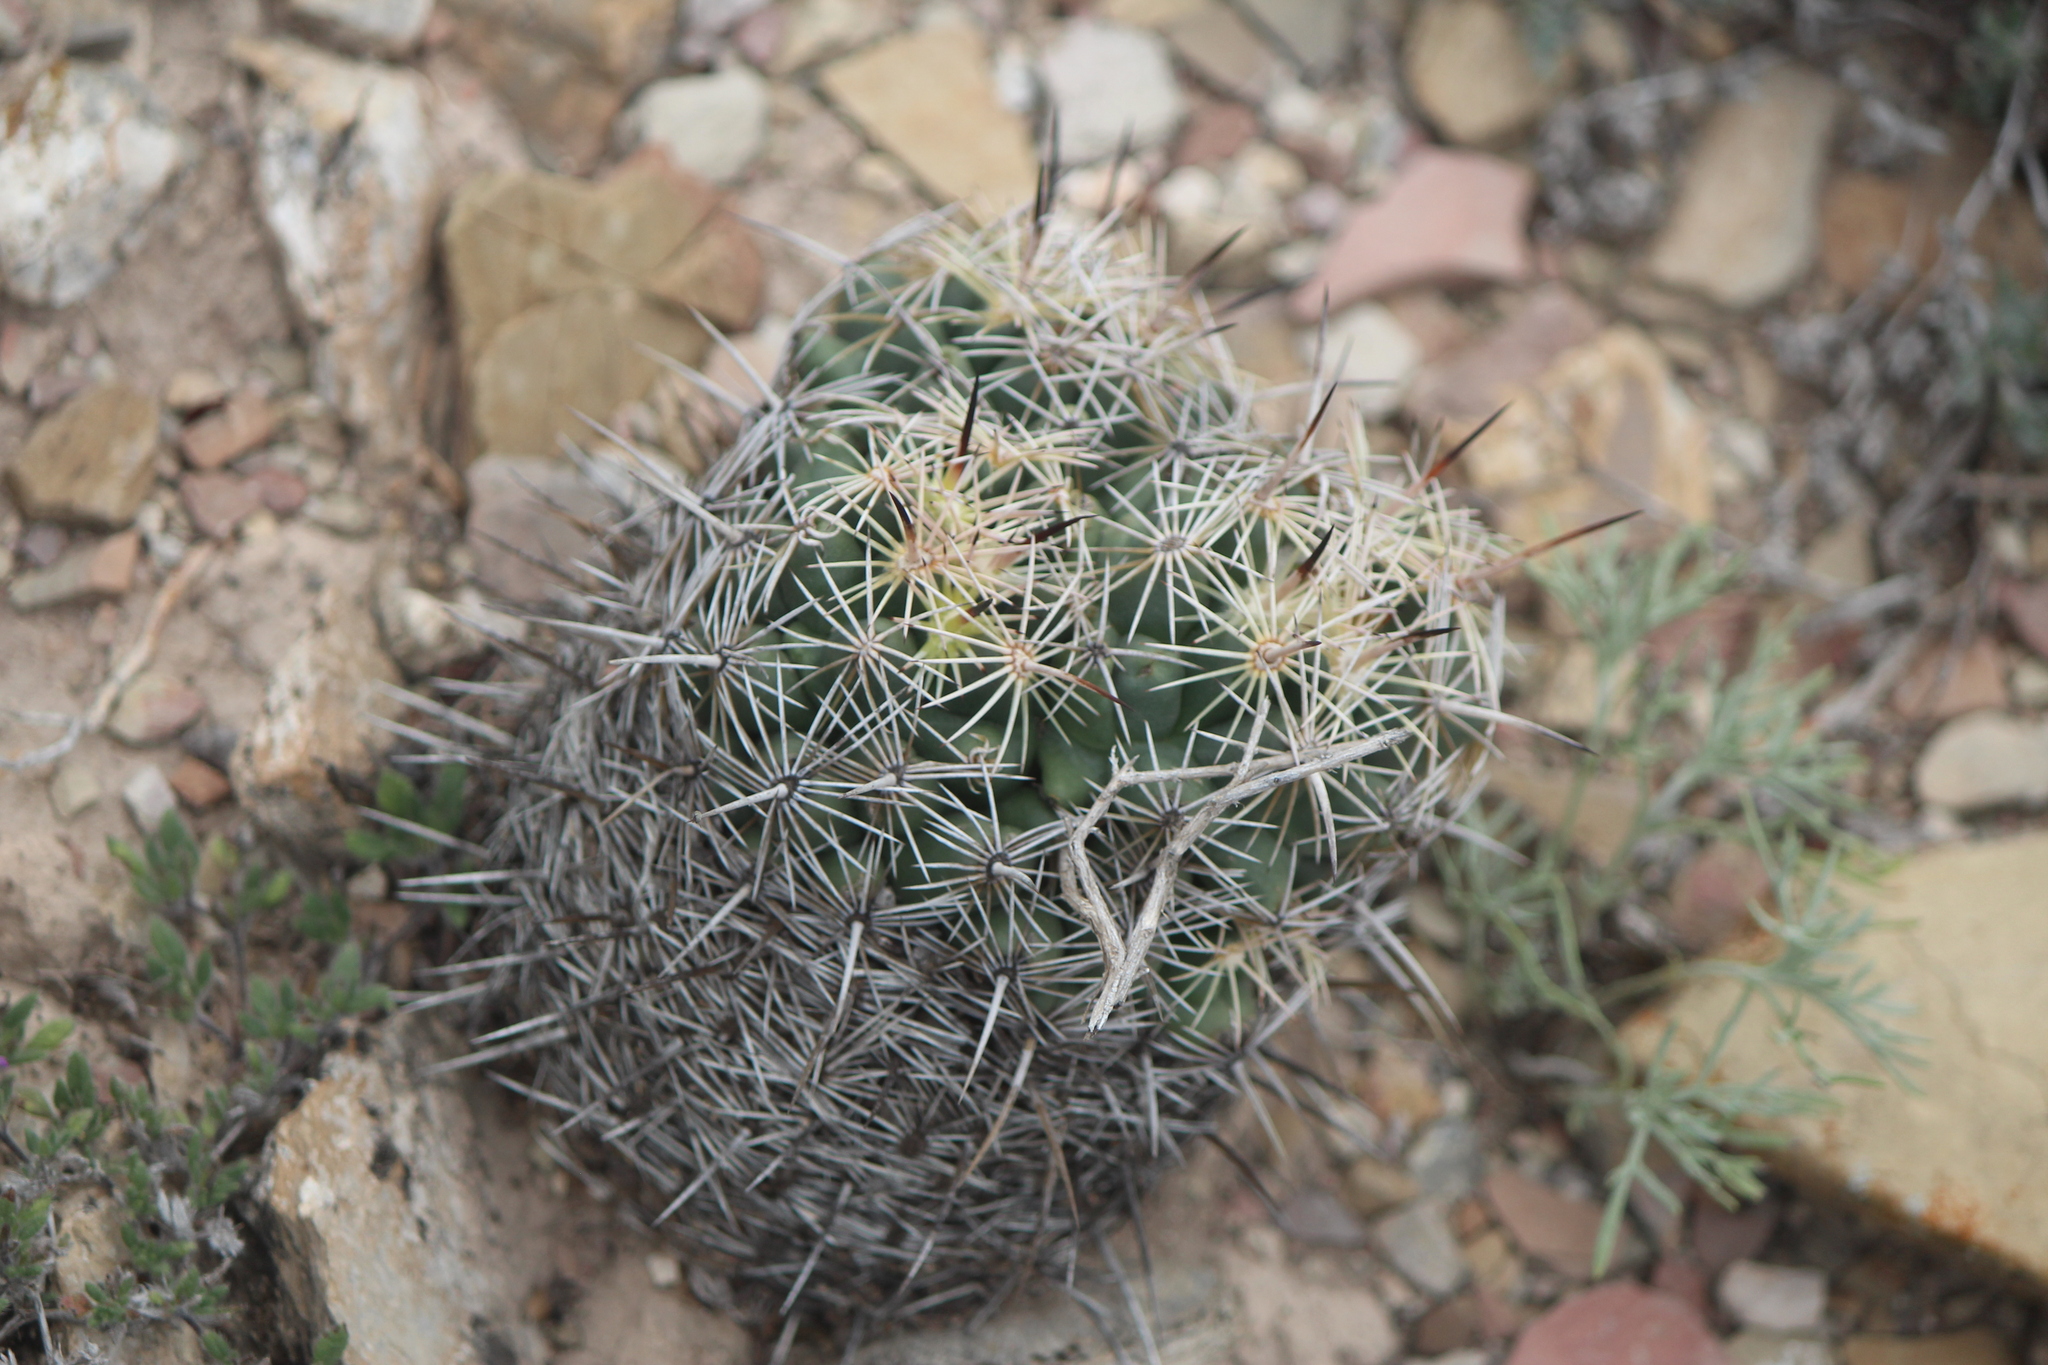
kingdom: Plantae
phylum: Tracheophyta
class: Magnoliopsida
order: Caryophyllales
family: Cactaceae
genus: Coryphantha
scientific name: Coryphantha cornifera
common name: Rhinoceros cactus
